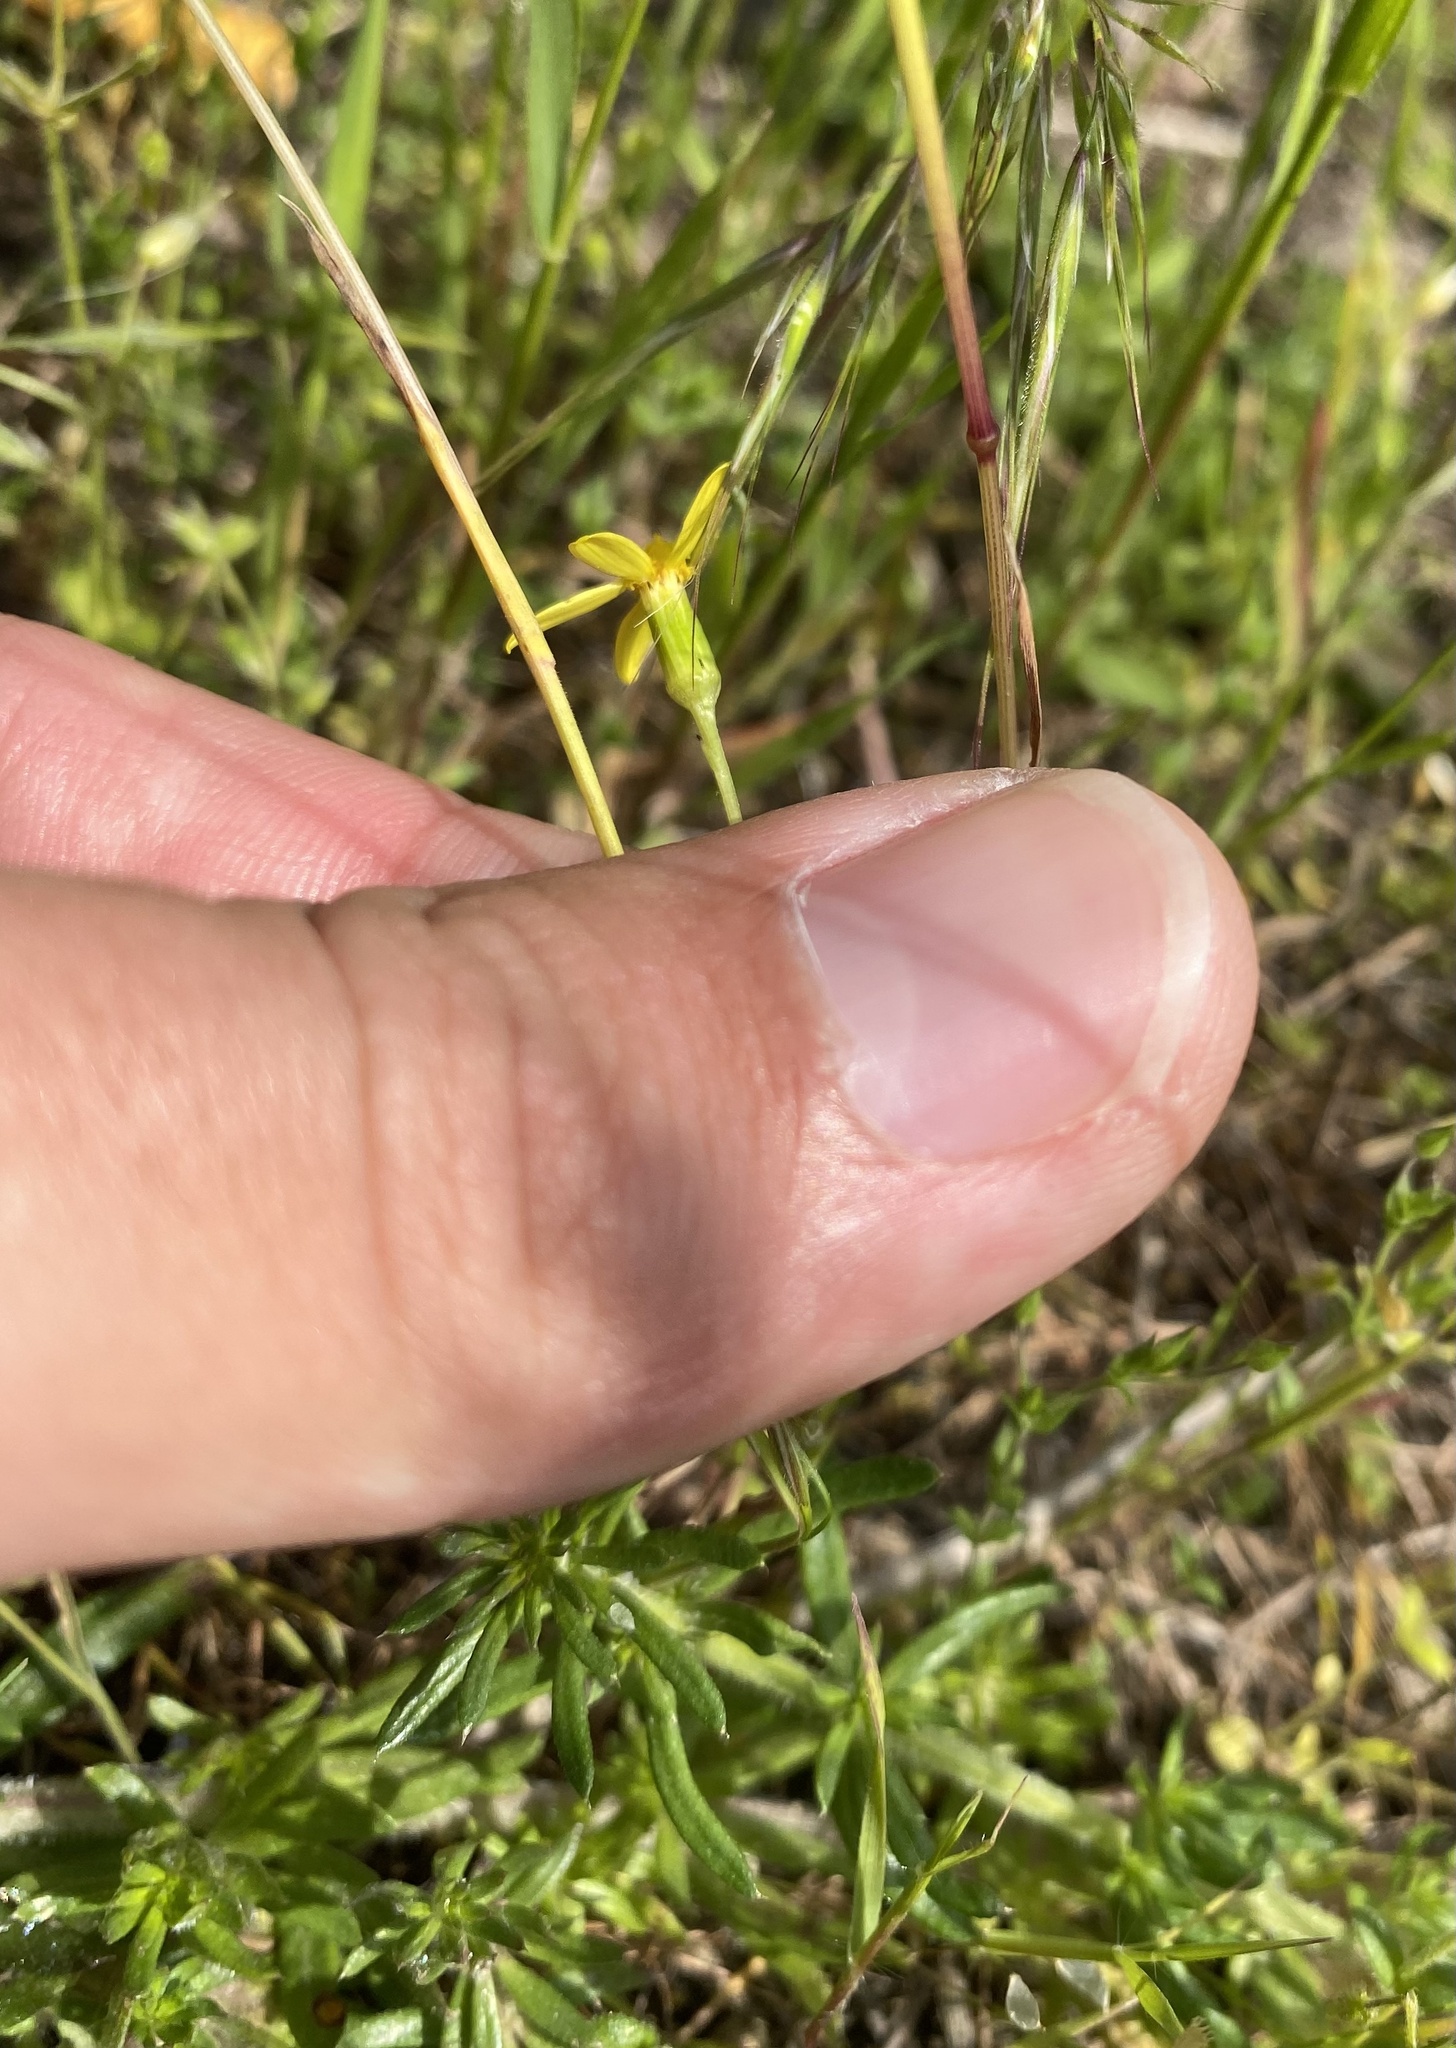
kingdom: Plantae
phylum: Tracheophyta
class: Magnoliopsida
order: Asterales
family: Asteraceae
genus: Senecio
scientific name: Senecio vernalis
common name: Eastern groundsel
